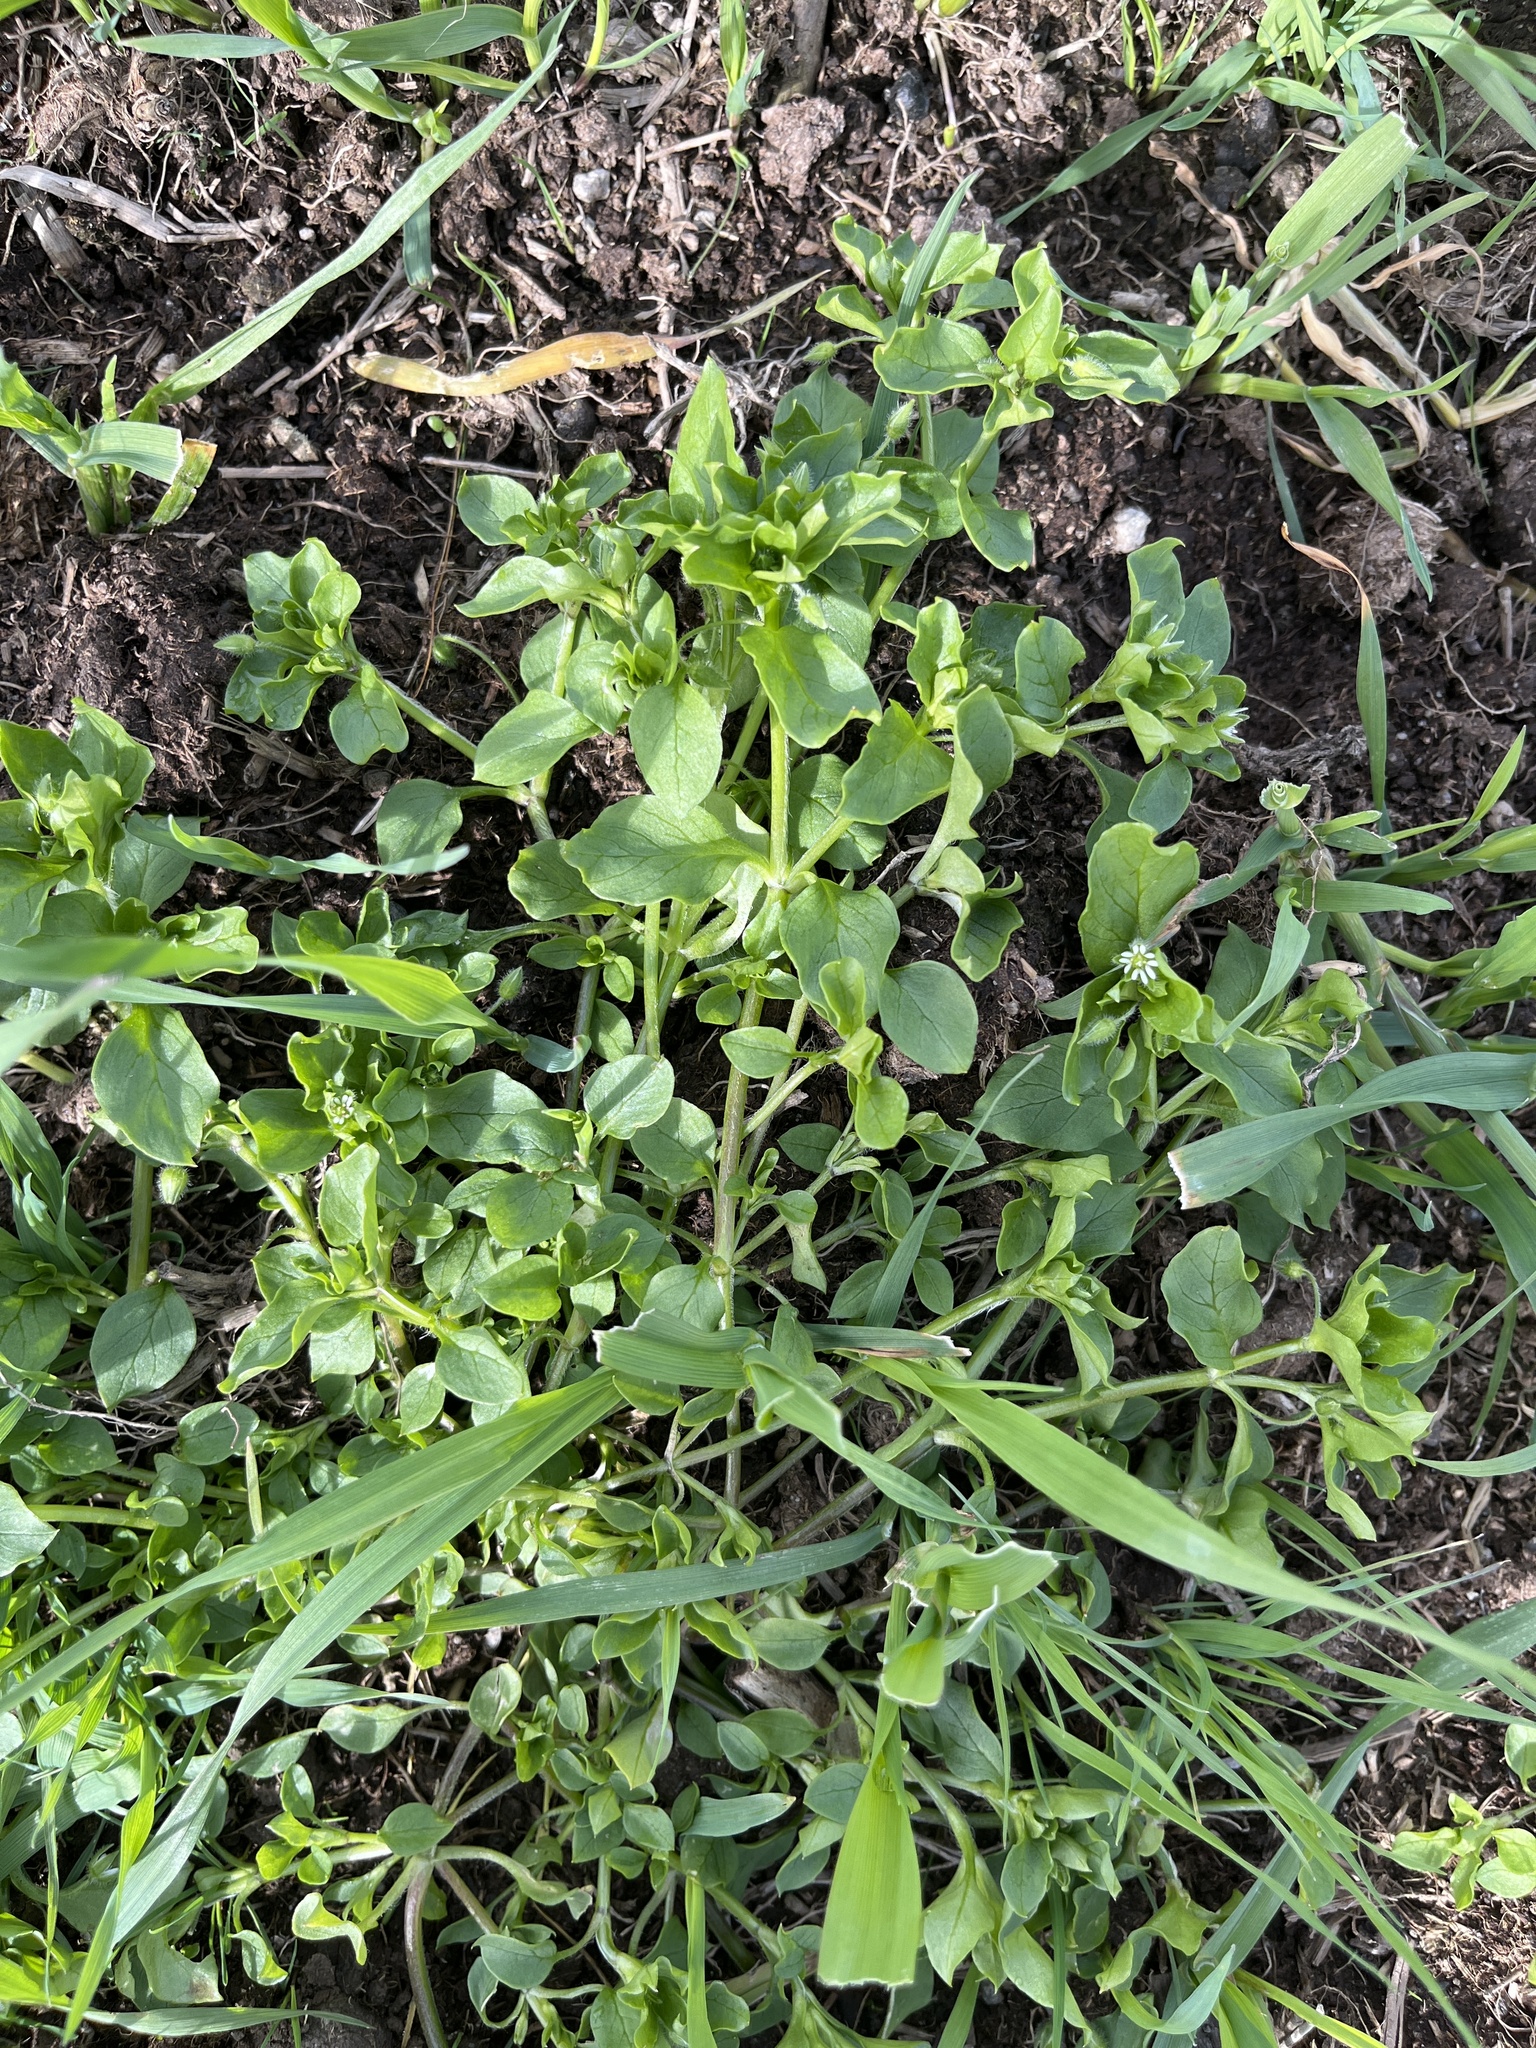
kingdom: Plantae
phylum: Tracheophyta
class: Magnoliopsida
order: Caryophyllales
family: Caryophyllaceae
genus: Stellaria
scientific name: Stellaria media
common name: Common chickweed
